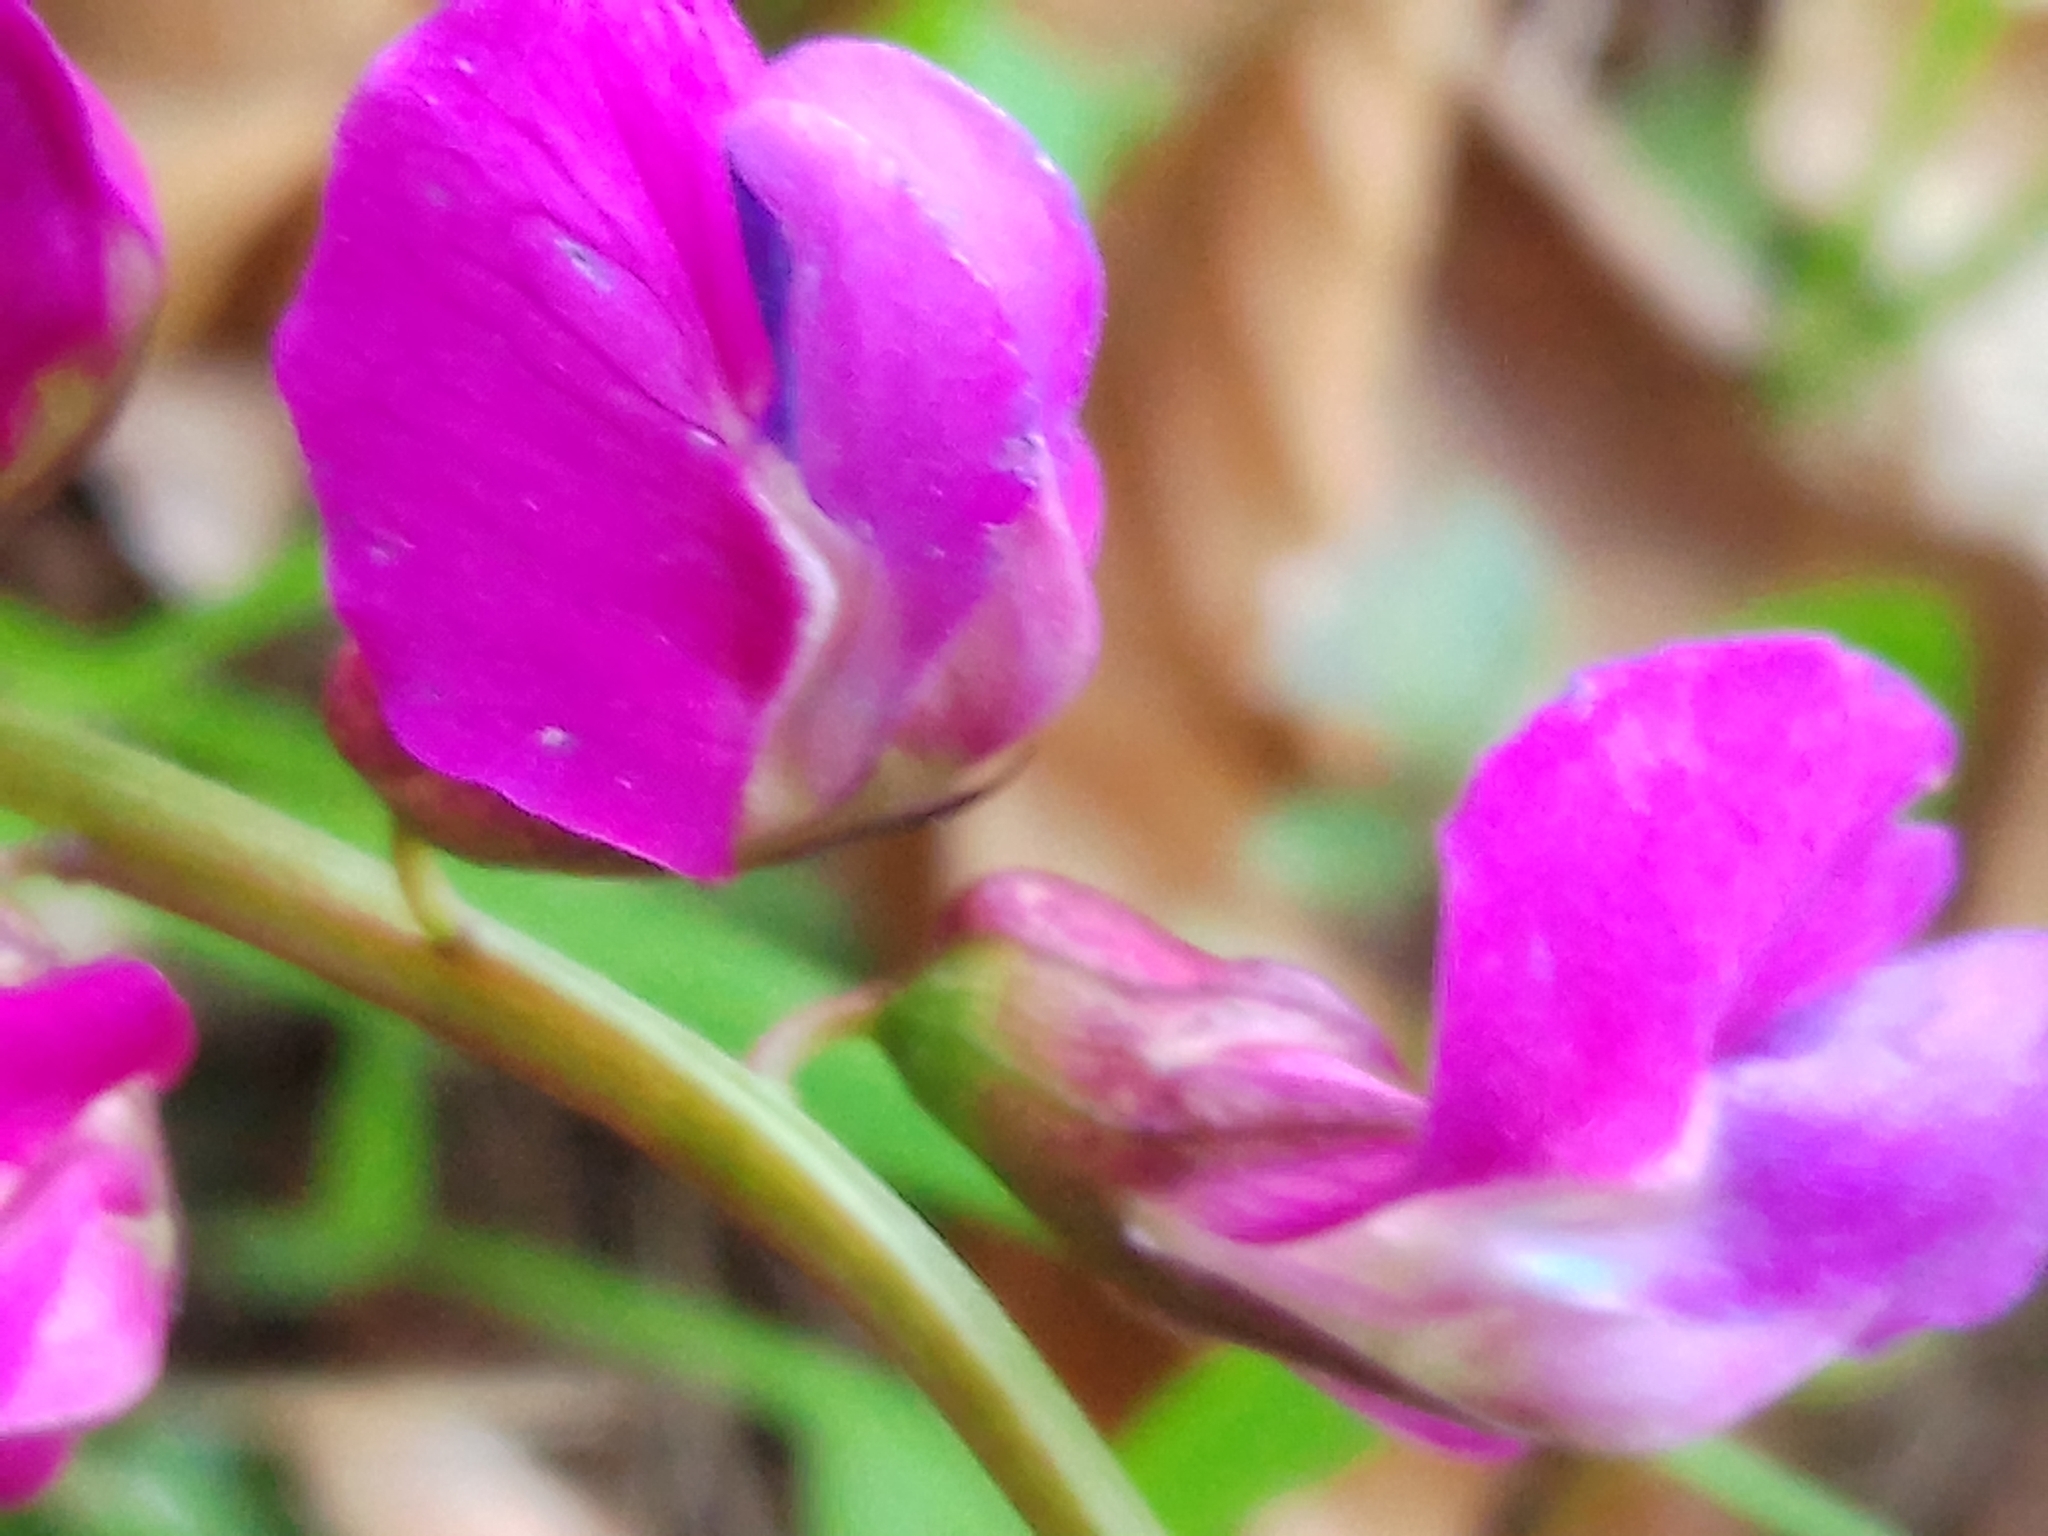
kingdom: Plantae
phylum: Tracheophyta
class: Magnoliopsida
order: Fabales
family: Fabaceae
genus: Lathyrus
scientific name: Lathyrus vernus
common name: Spring pea
